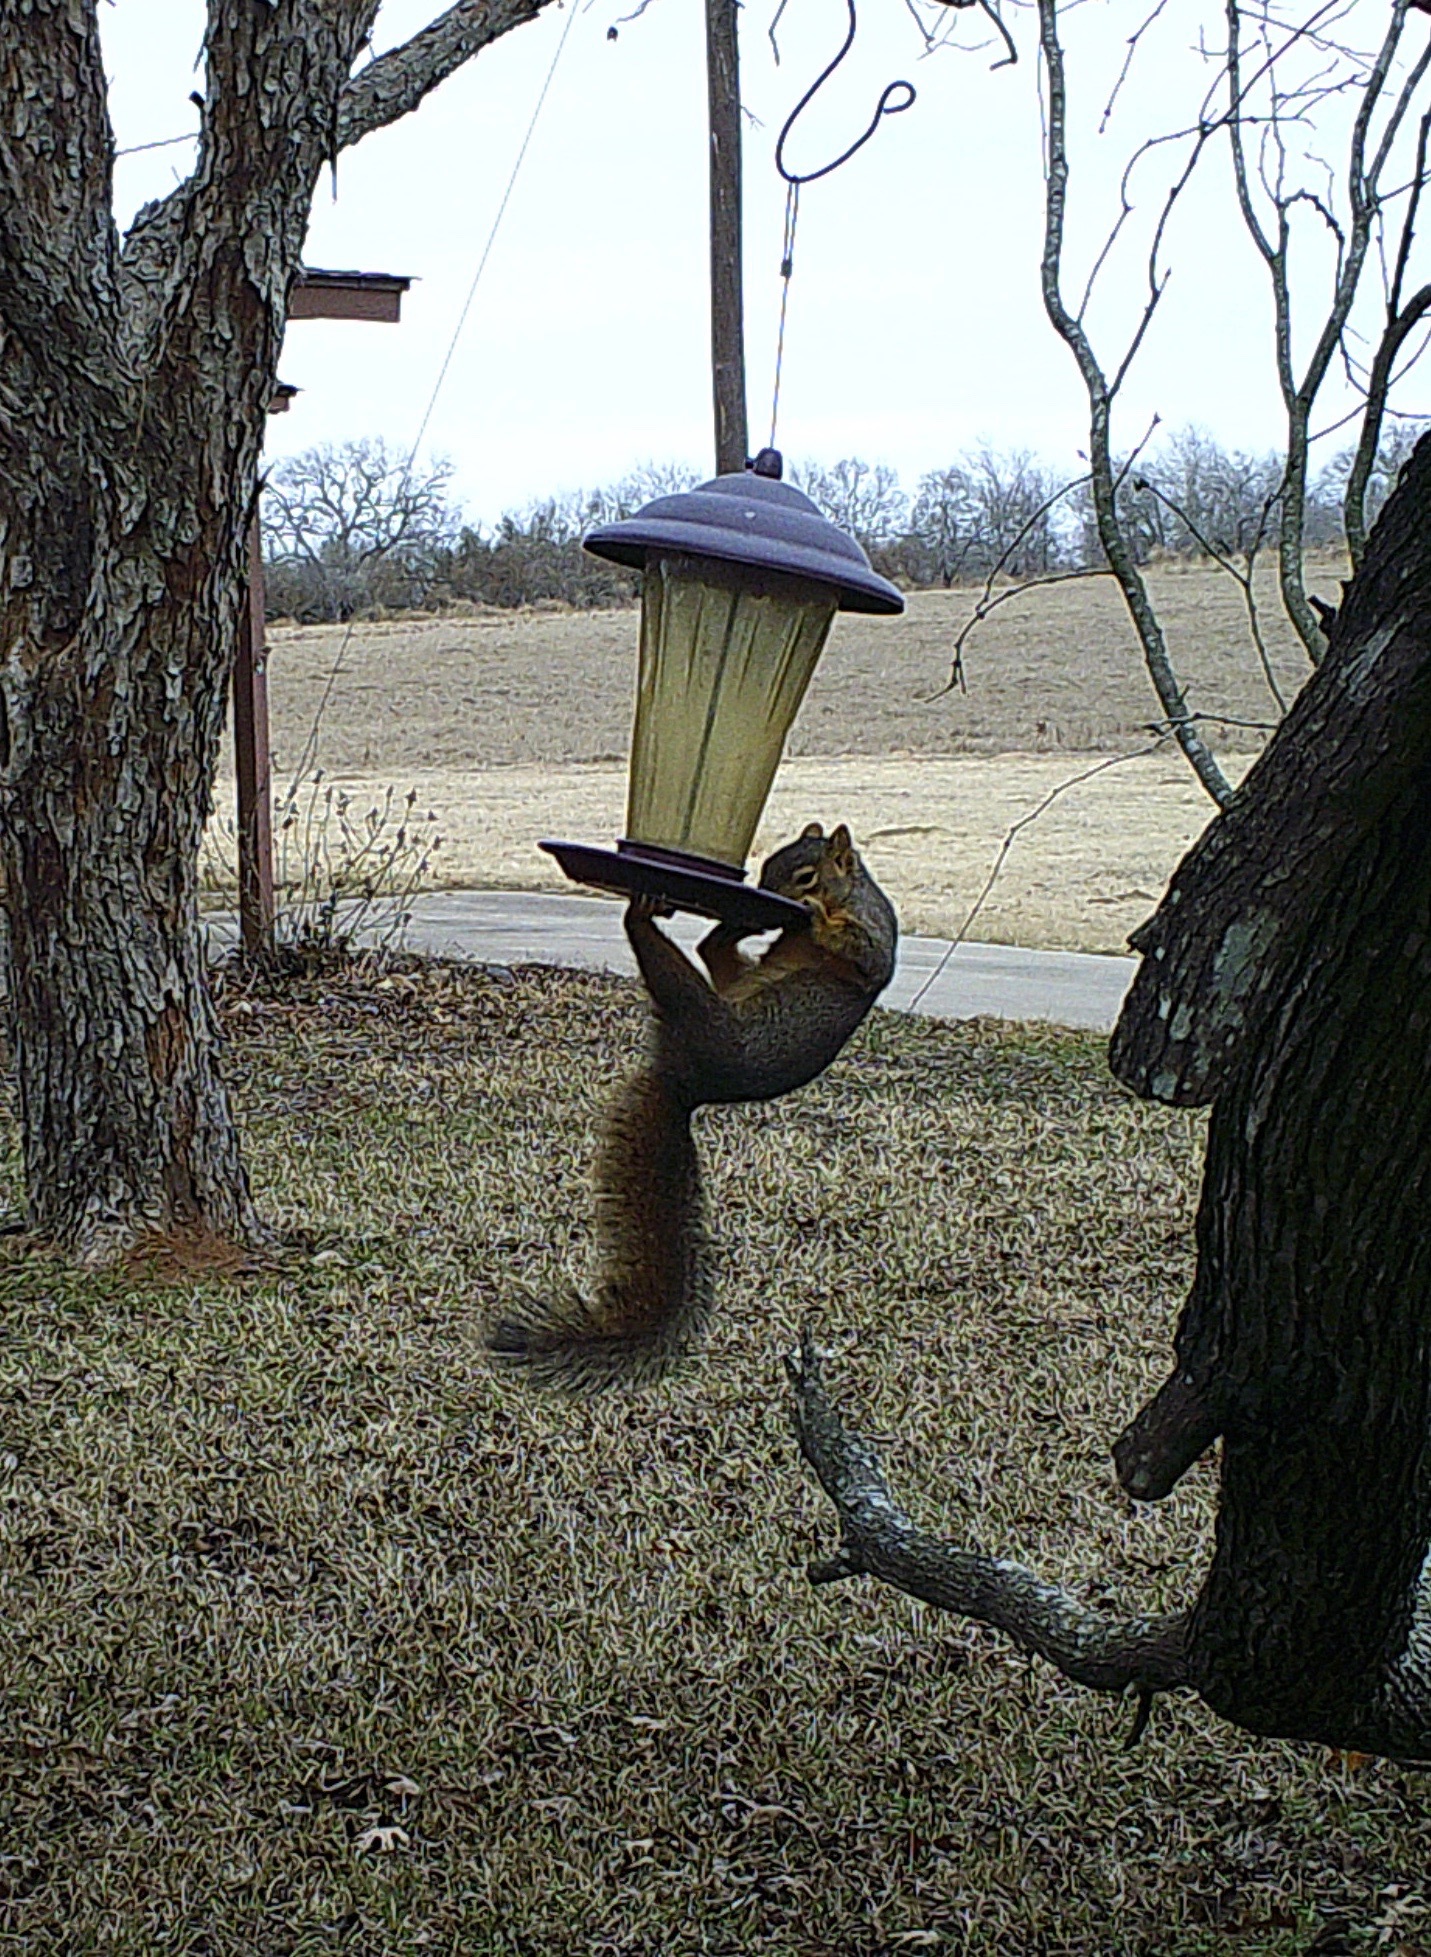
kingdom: Animalia
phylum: Chordata
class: Mammalia
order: Rodentia
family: Sciuridae
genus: Sciurus
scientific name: Sciurus niger
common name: Fox squirrel
